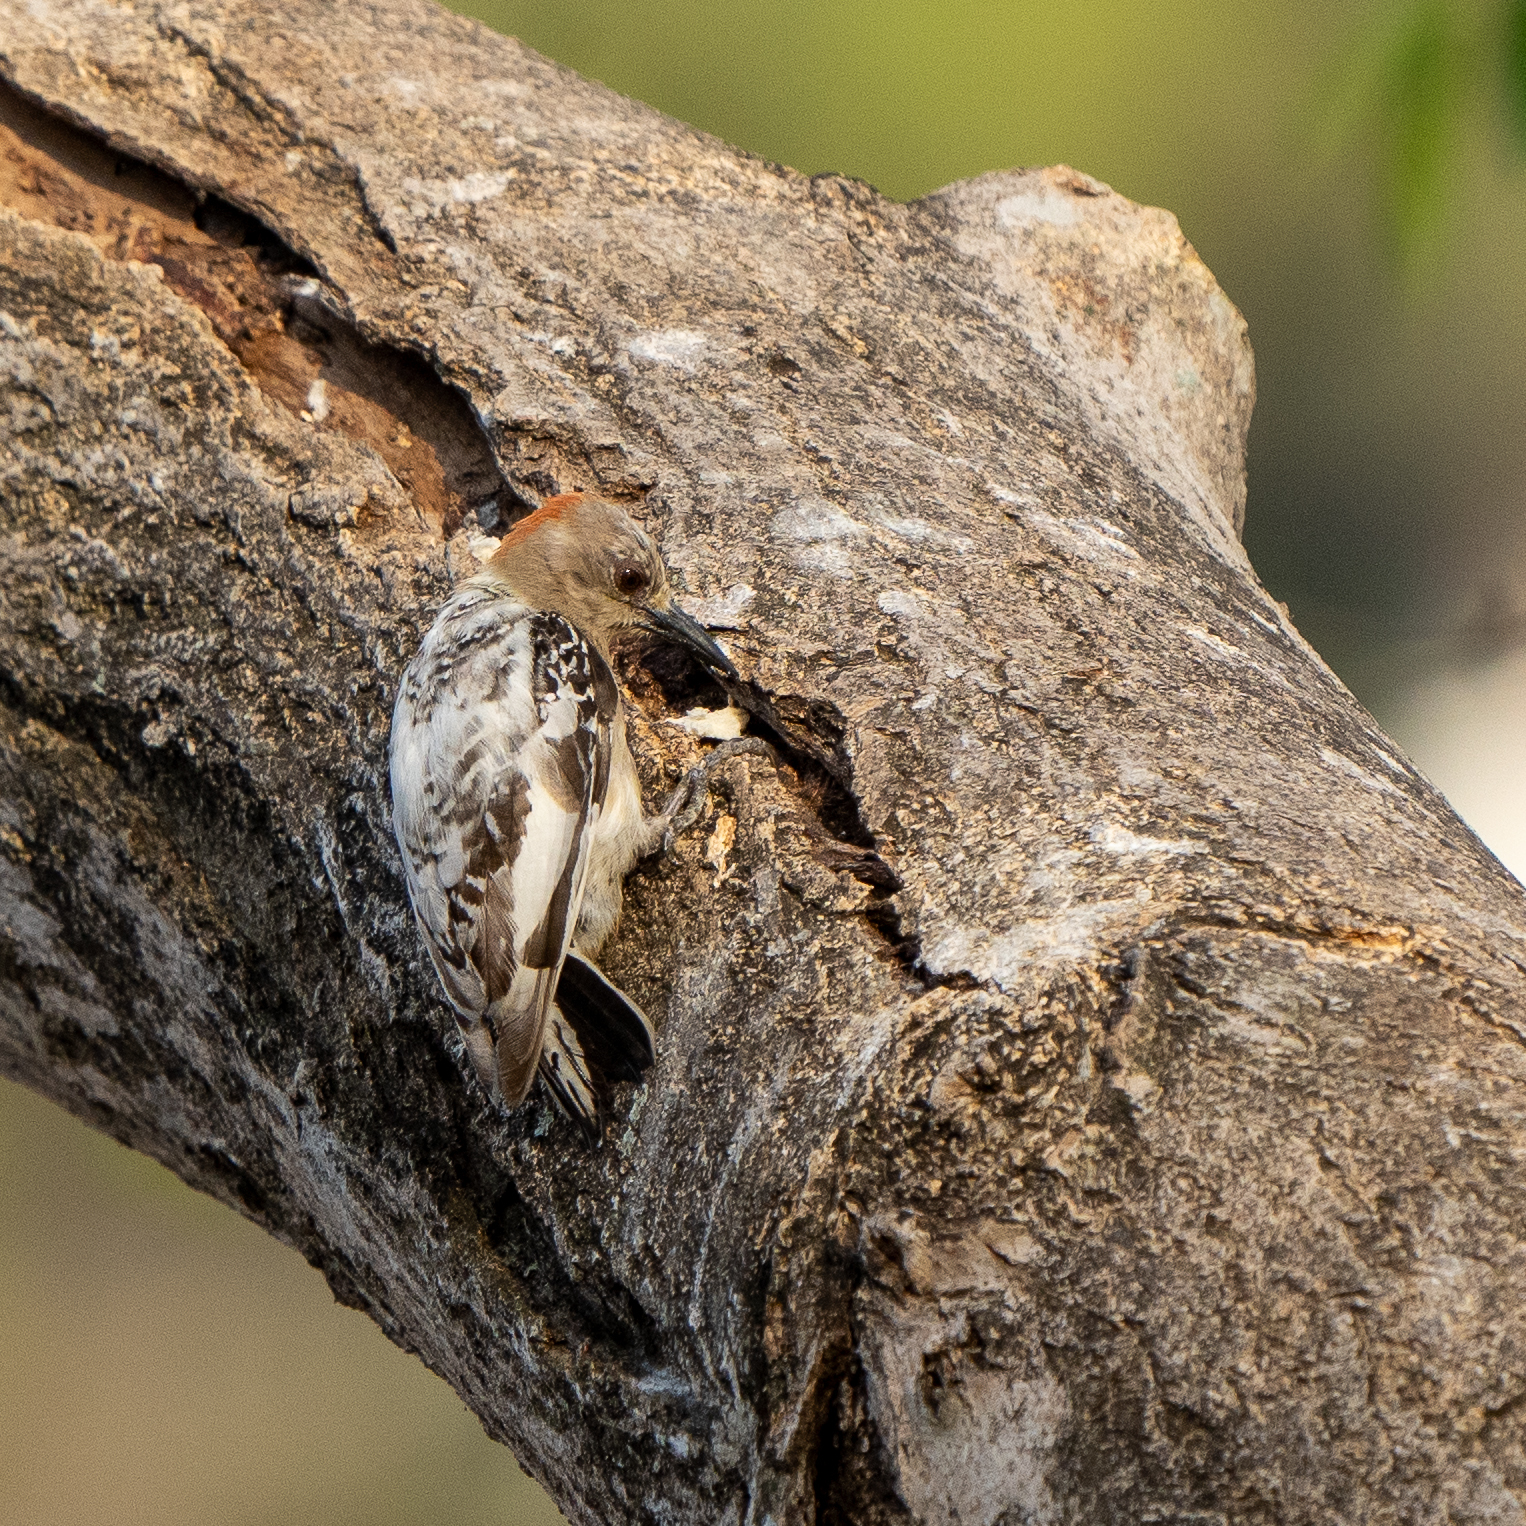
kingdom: Animalia
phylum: Chordata
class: Aves
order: Piciformes
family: Picidae
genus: Melanerpes
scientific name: Melanerpes rubricapillus
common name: Red-crowned woodpecker
